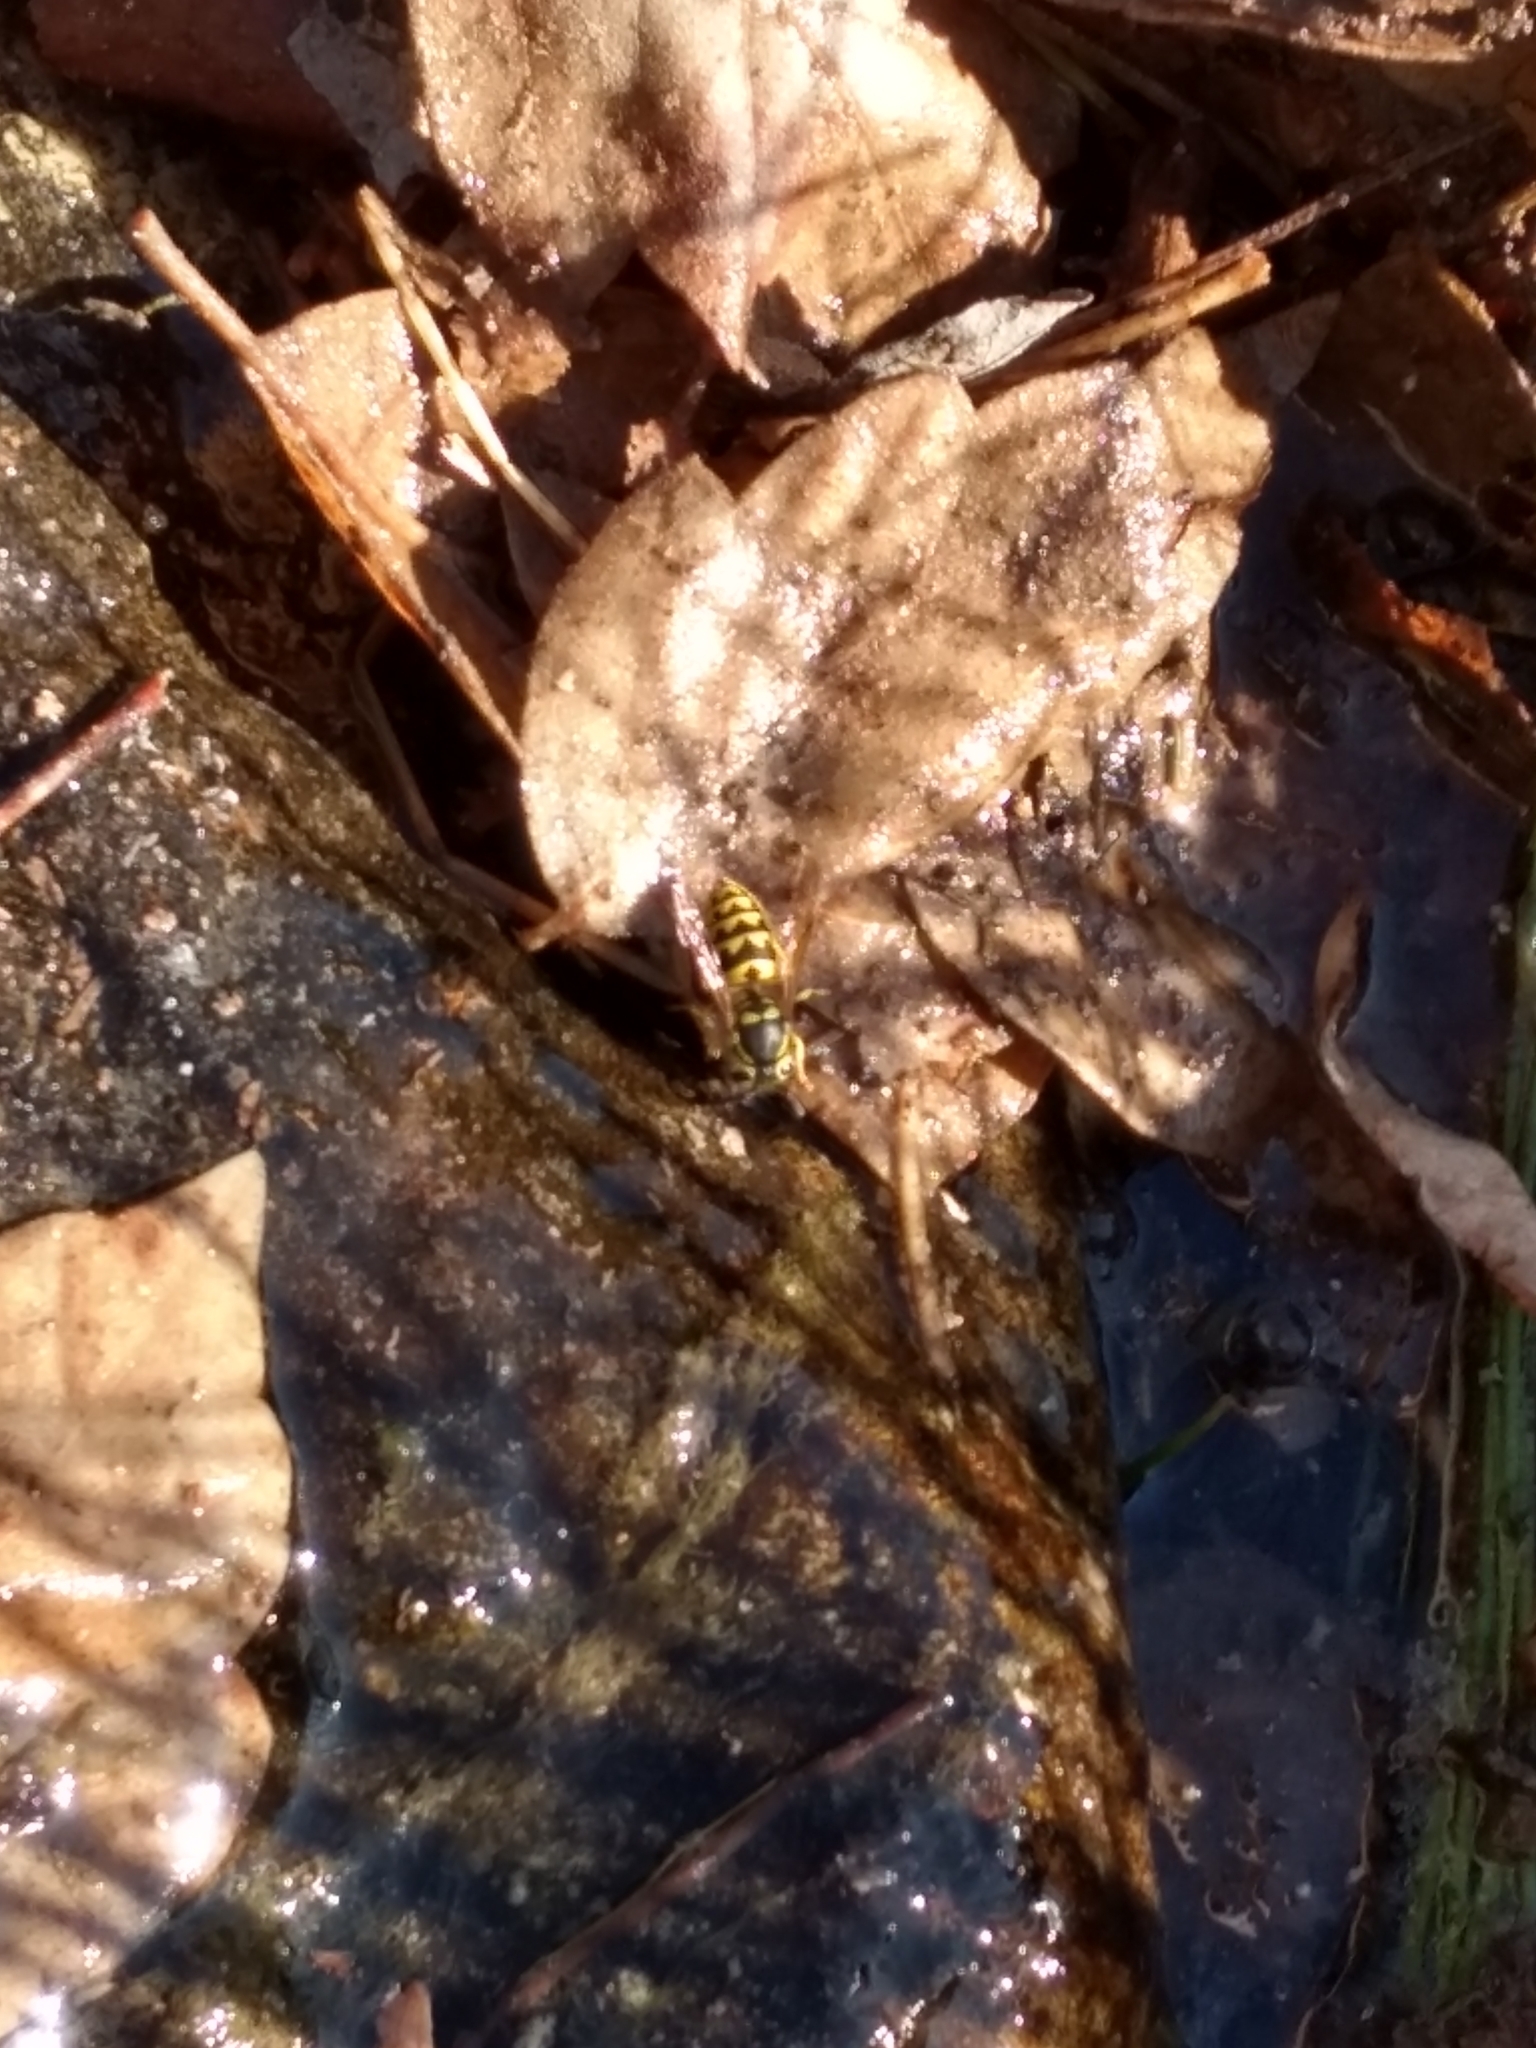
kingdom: Animalia
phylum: Arthropoda
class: Insecta
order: Hymenoptera
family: Vespidae
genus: Vespula
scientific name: Vespula pensylvanica
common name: Western yellowjacket
